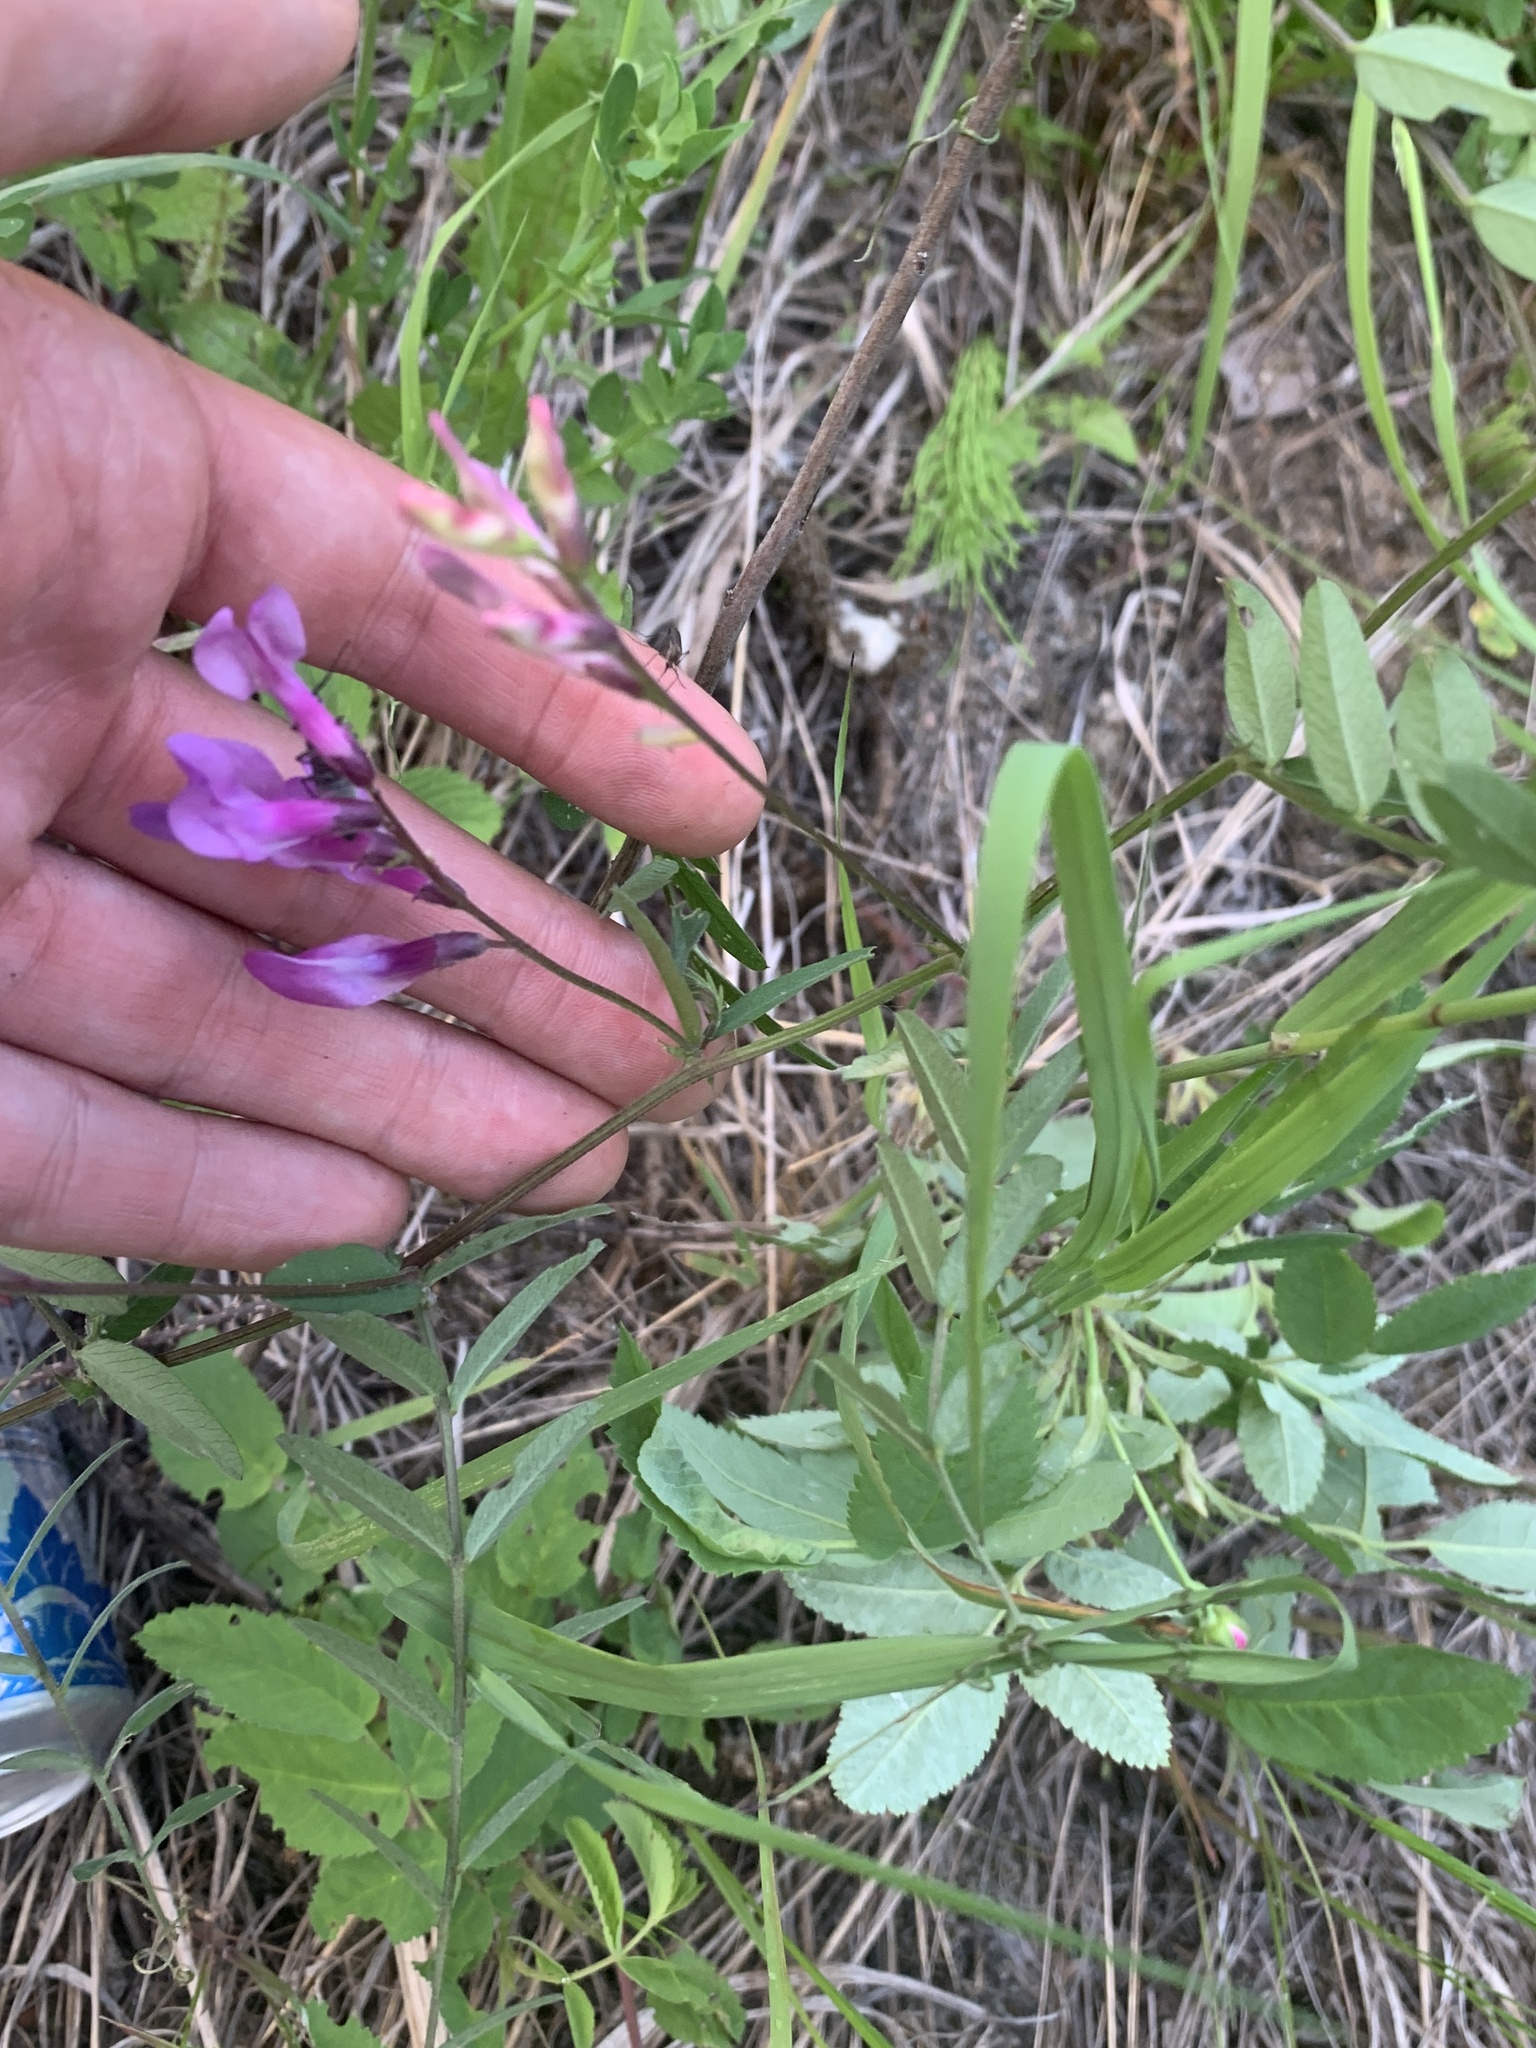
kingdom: Plantae
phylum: Tracheophyta
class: Magnoliopsida
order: Fabales
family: Fabaceae
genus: Vicia
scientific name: Vicia americana
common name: American vetch
